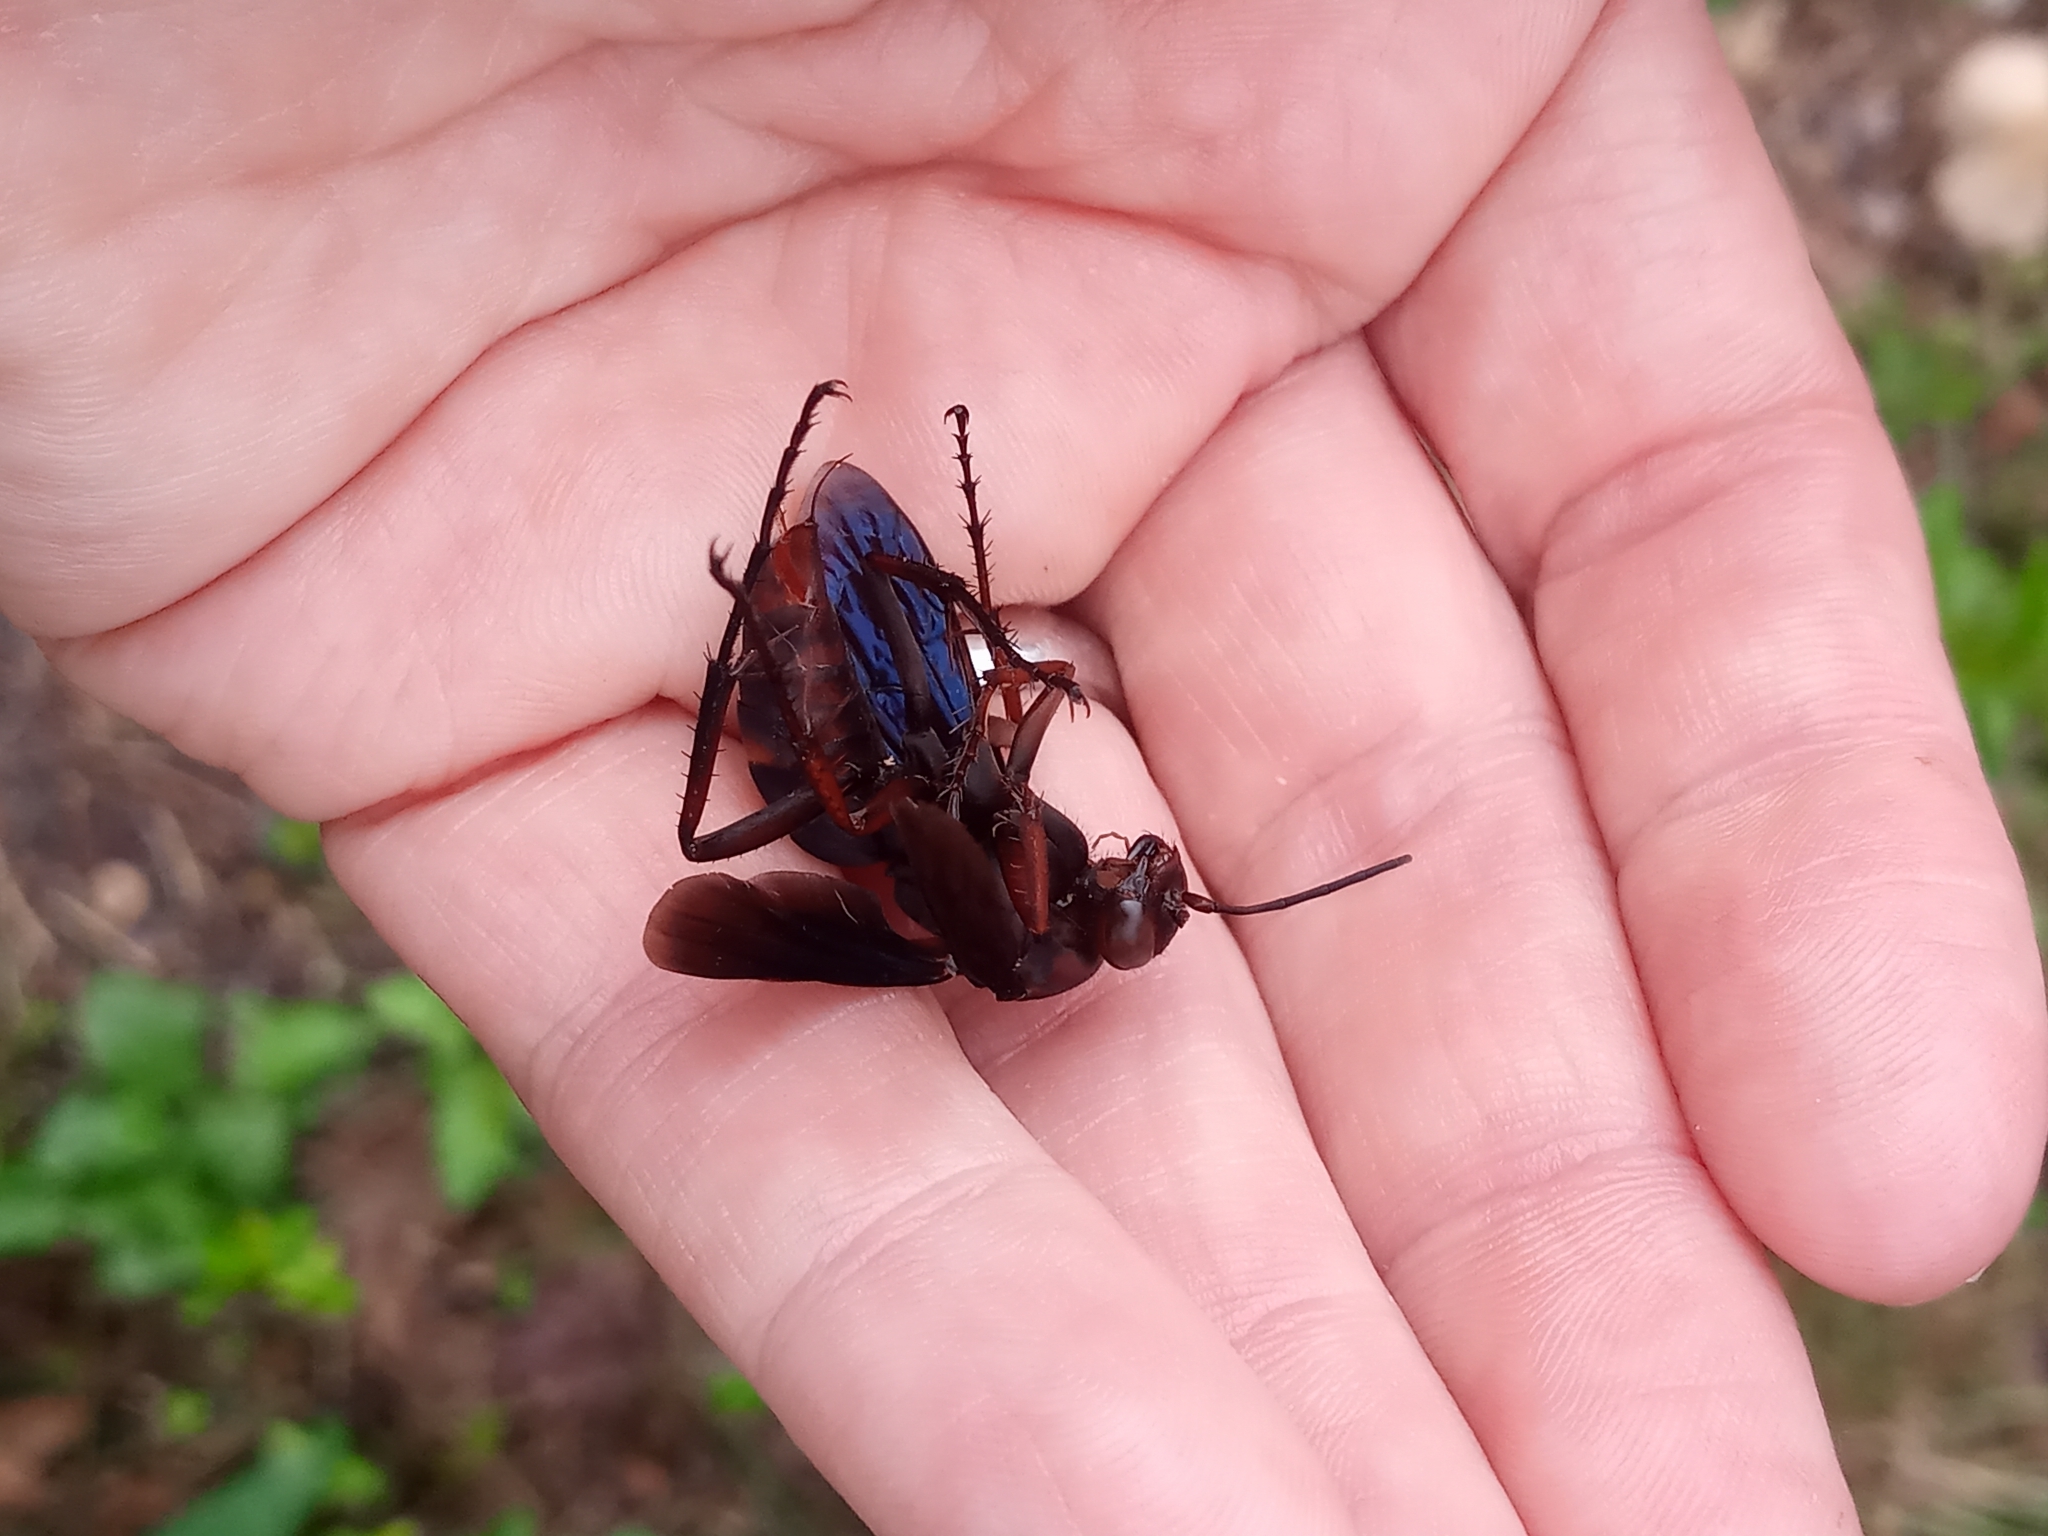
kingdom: Animalia
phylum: Arthropoda
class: Insecta
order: Hymenoptera
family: Pompilidae
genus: Poecilopompilus
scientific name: Poecilopompilus algidus
